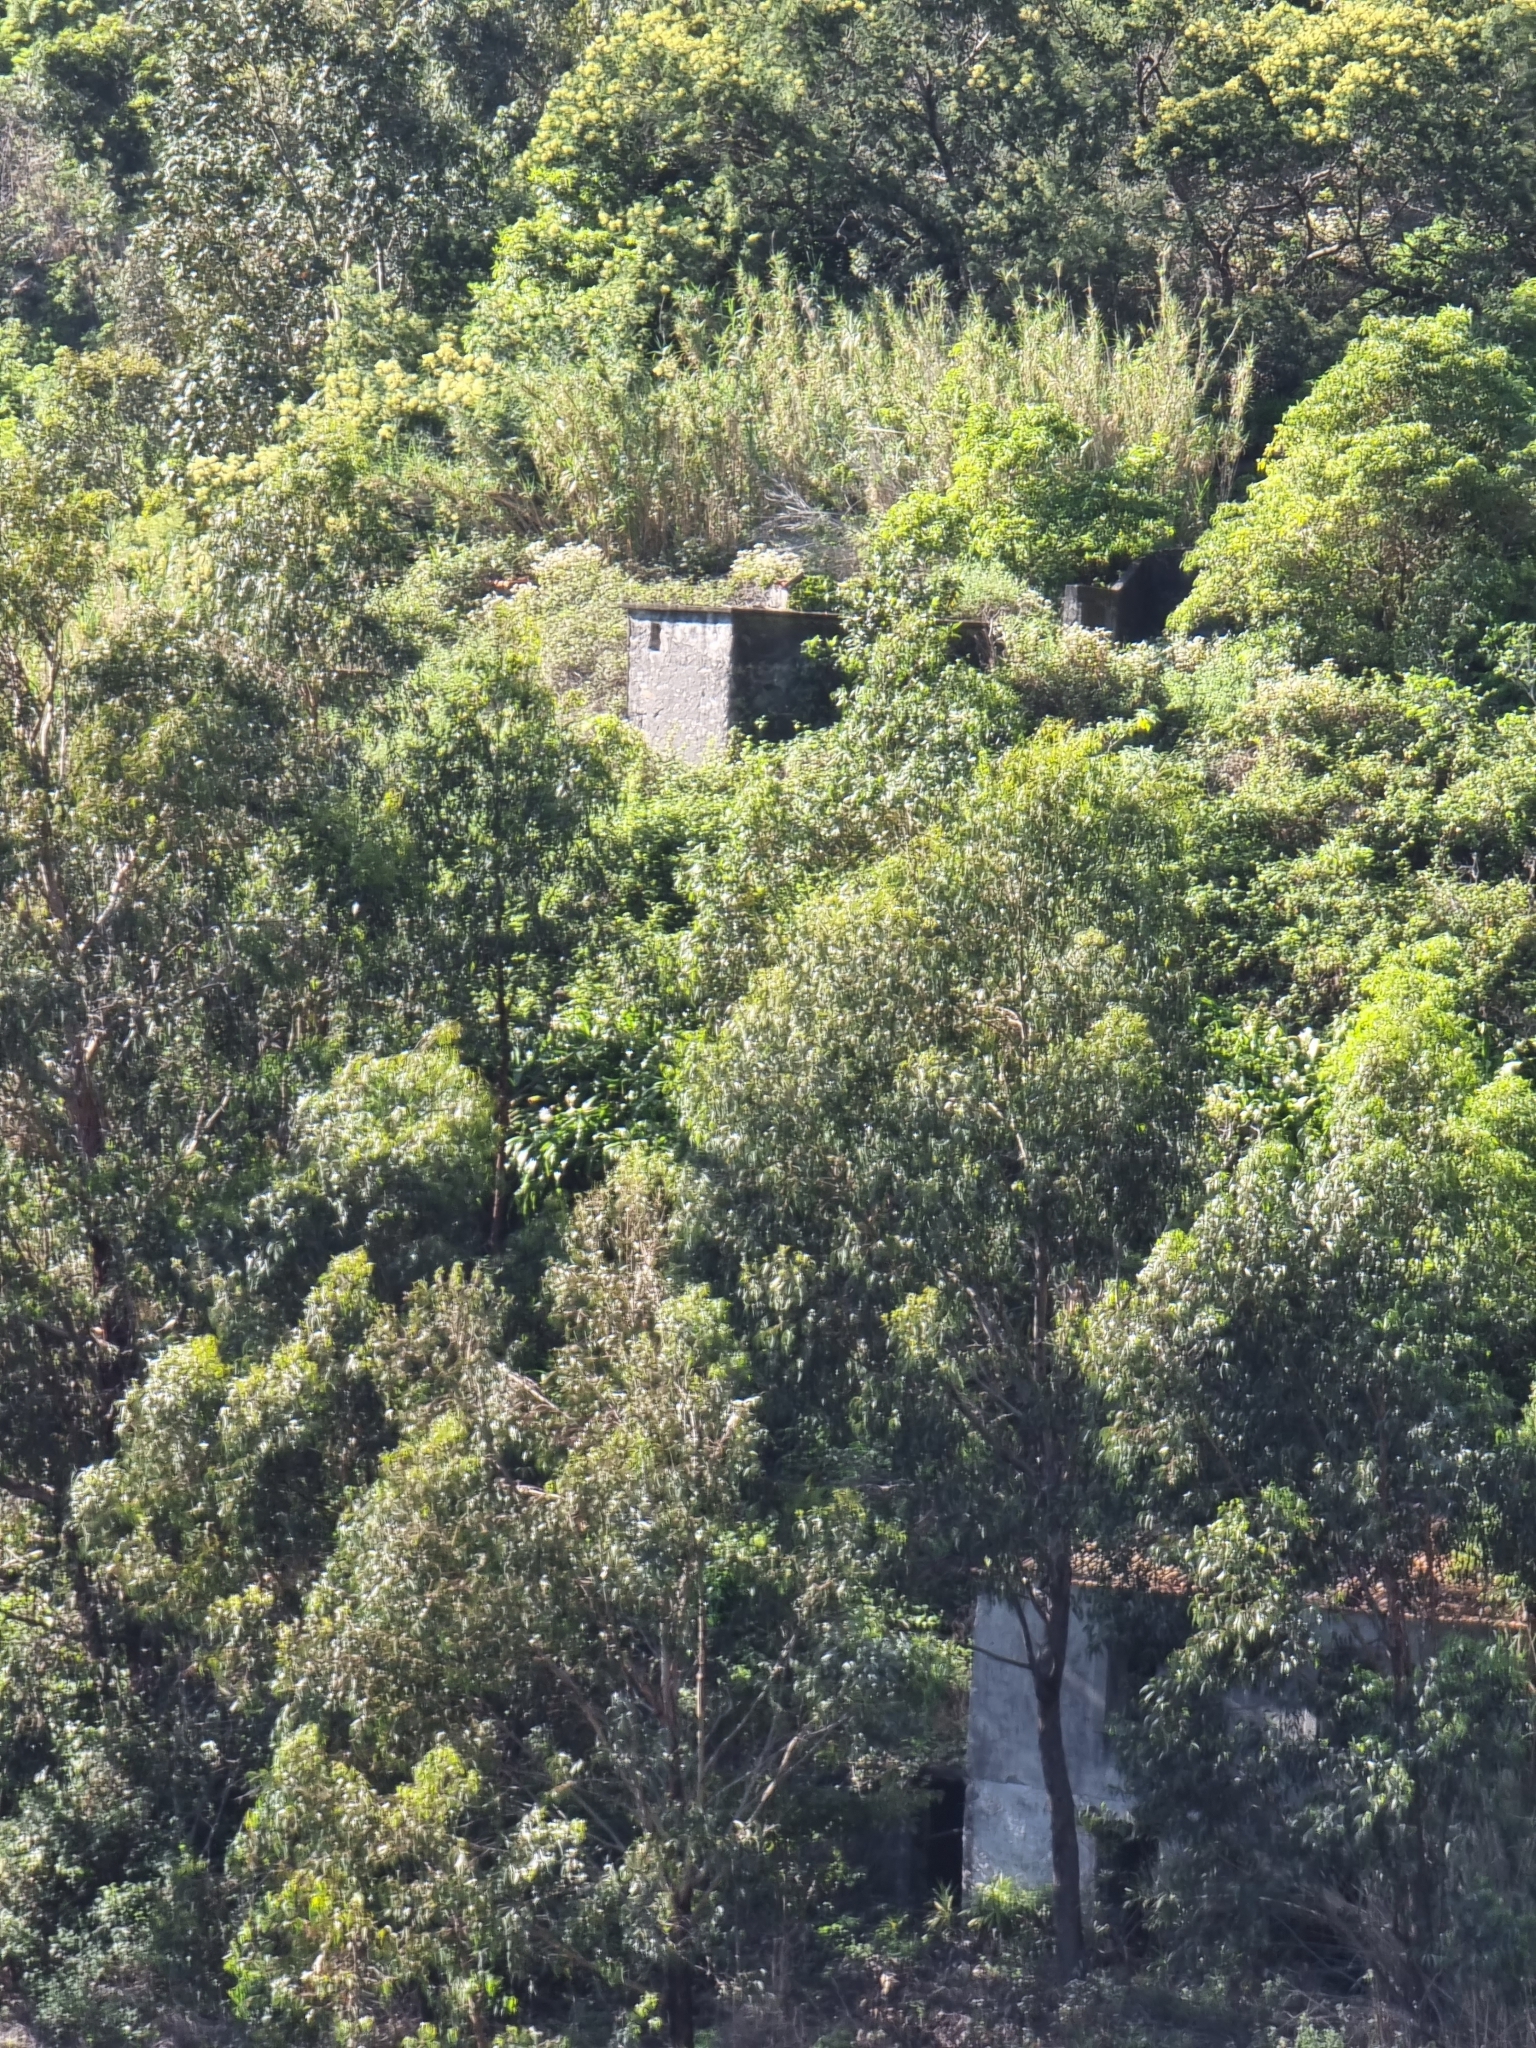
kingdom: Plantae
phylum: Tracheophyta
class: Magnoliopsida
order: Myrtales
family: Myrtaceae
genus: Eucalyptus
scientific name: Eucalyptus globulus
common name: Southern blue-gum
